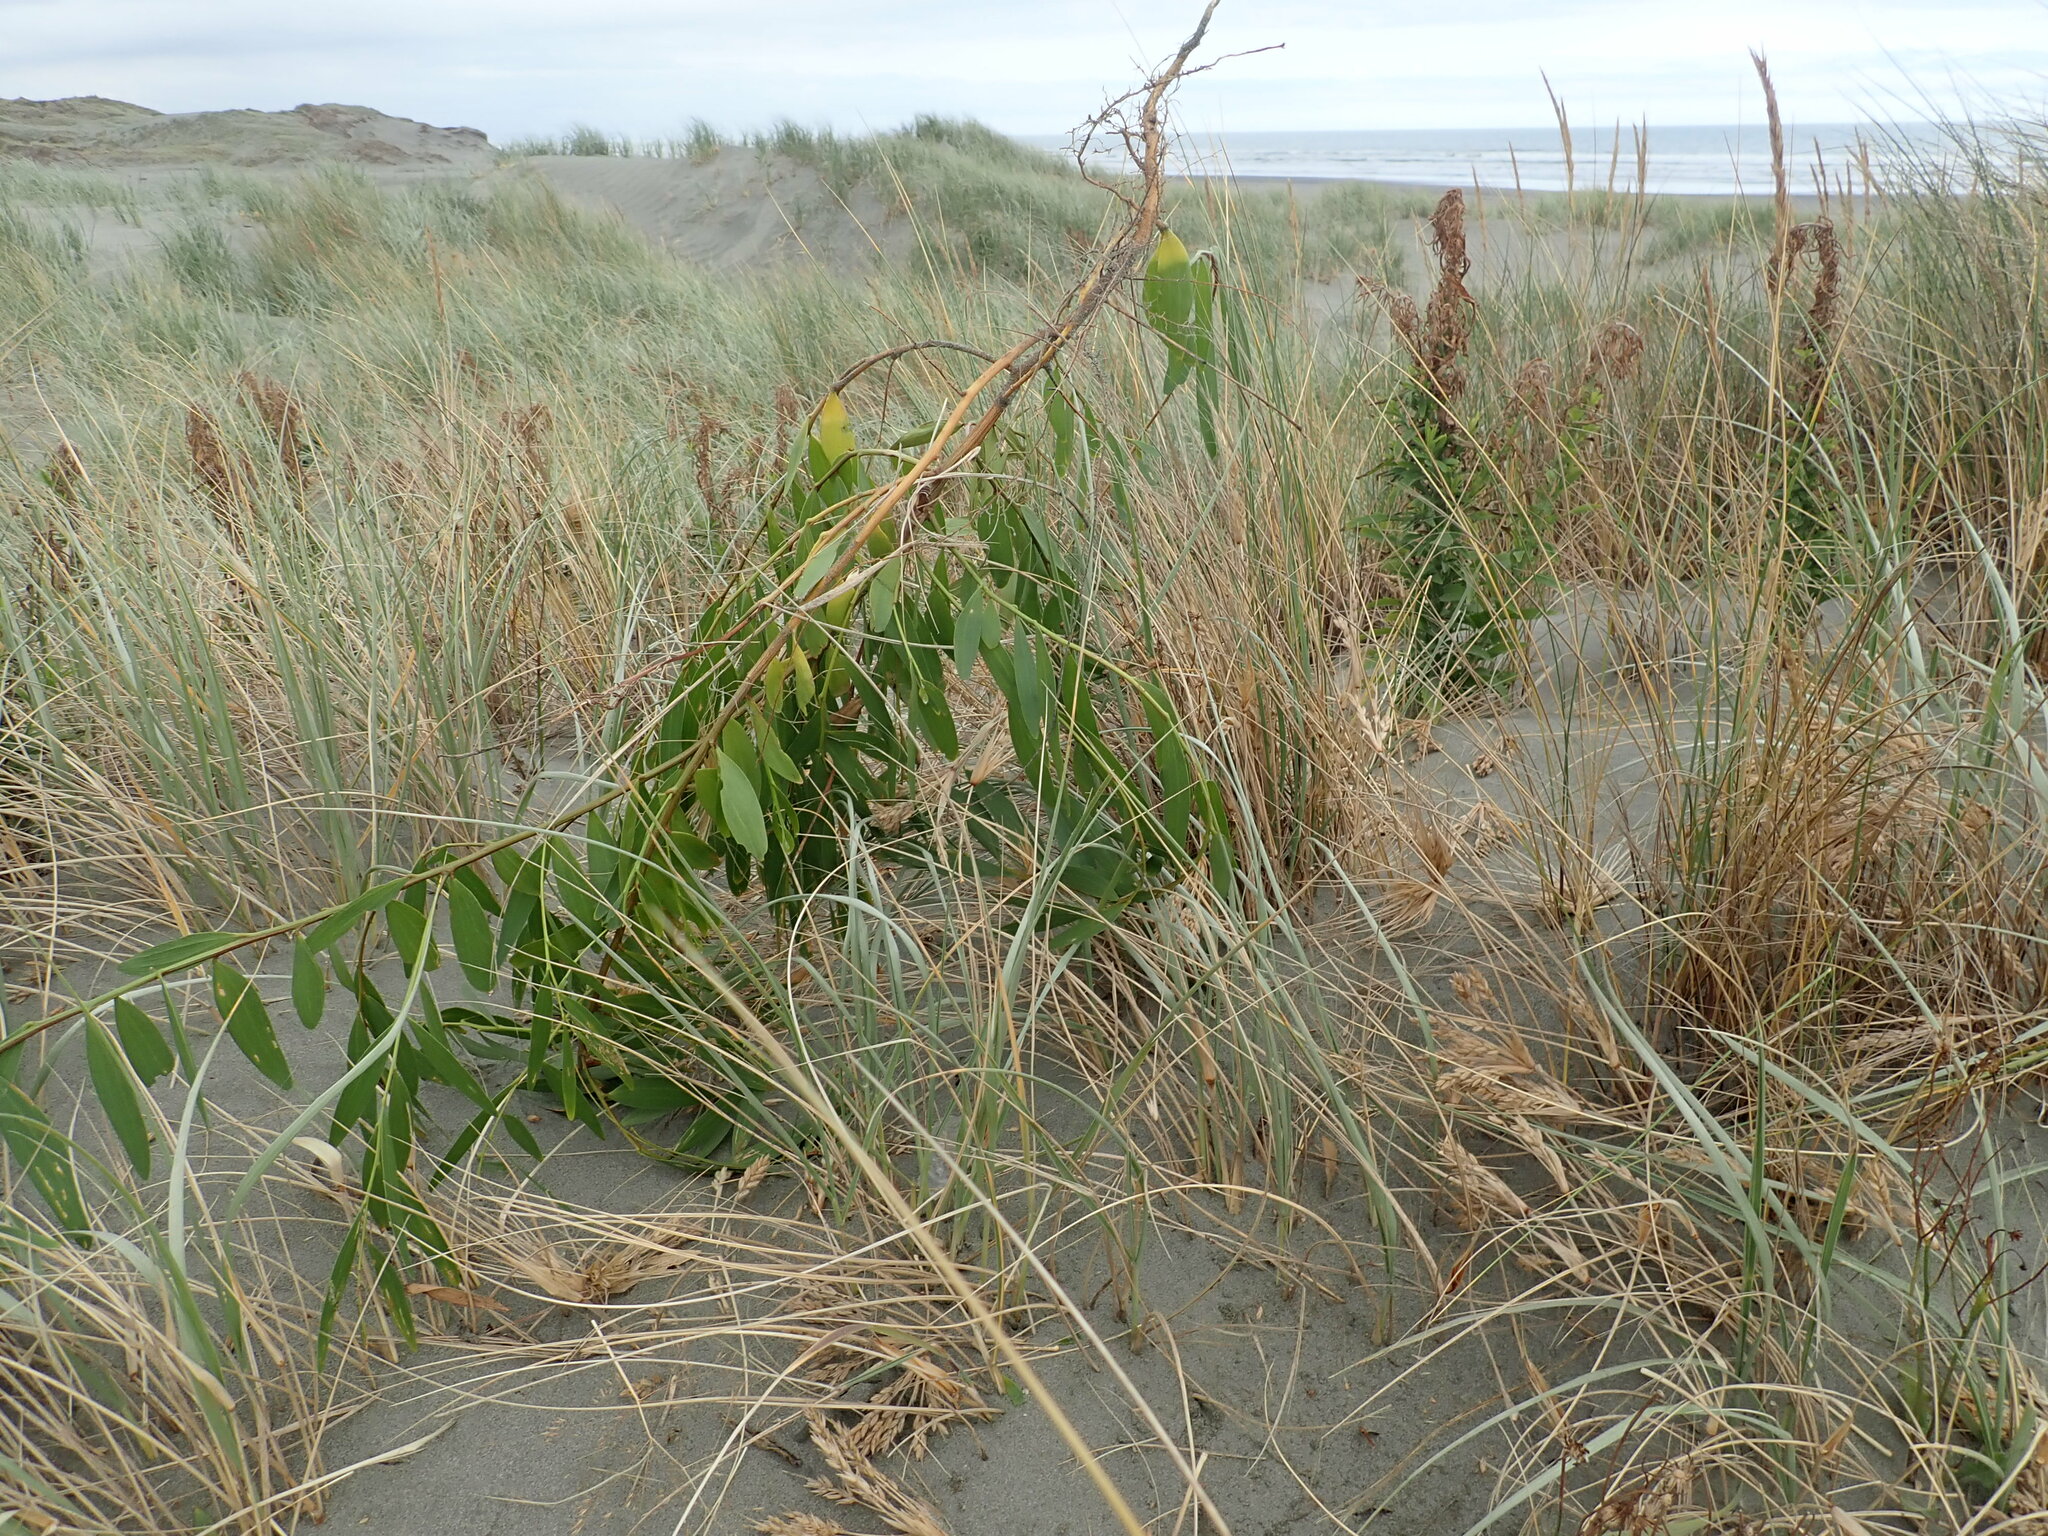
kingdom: Plantae
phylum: Tracheophyta
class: Magnoliopsida
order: Fabales
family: Fabaceae
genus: Acacia
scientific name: Acacia longifolia
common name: Sydney golden wattle
